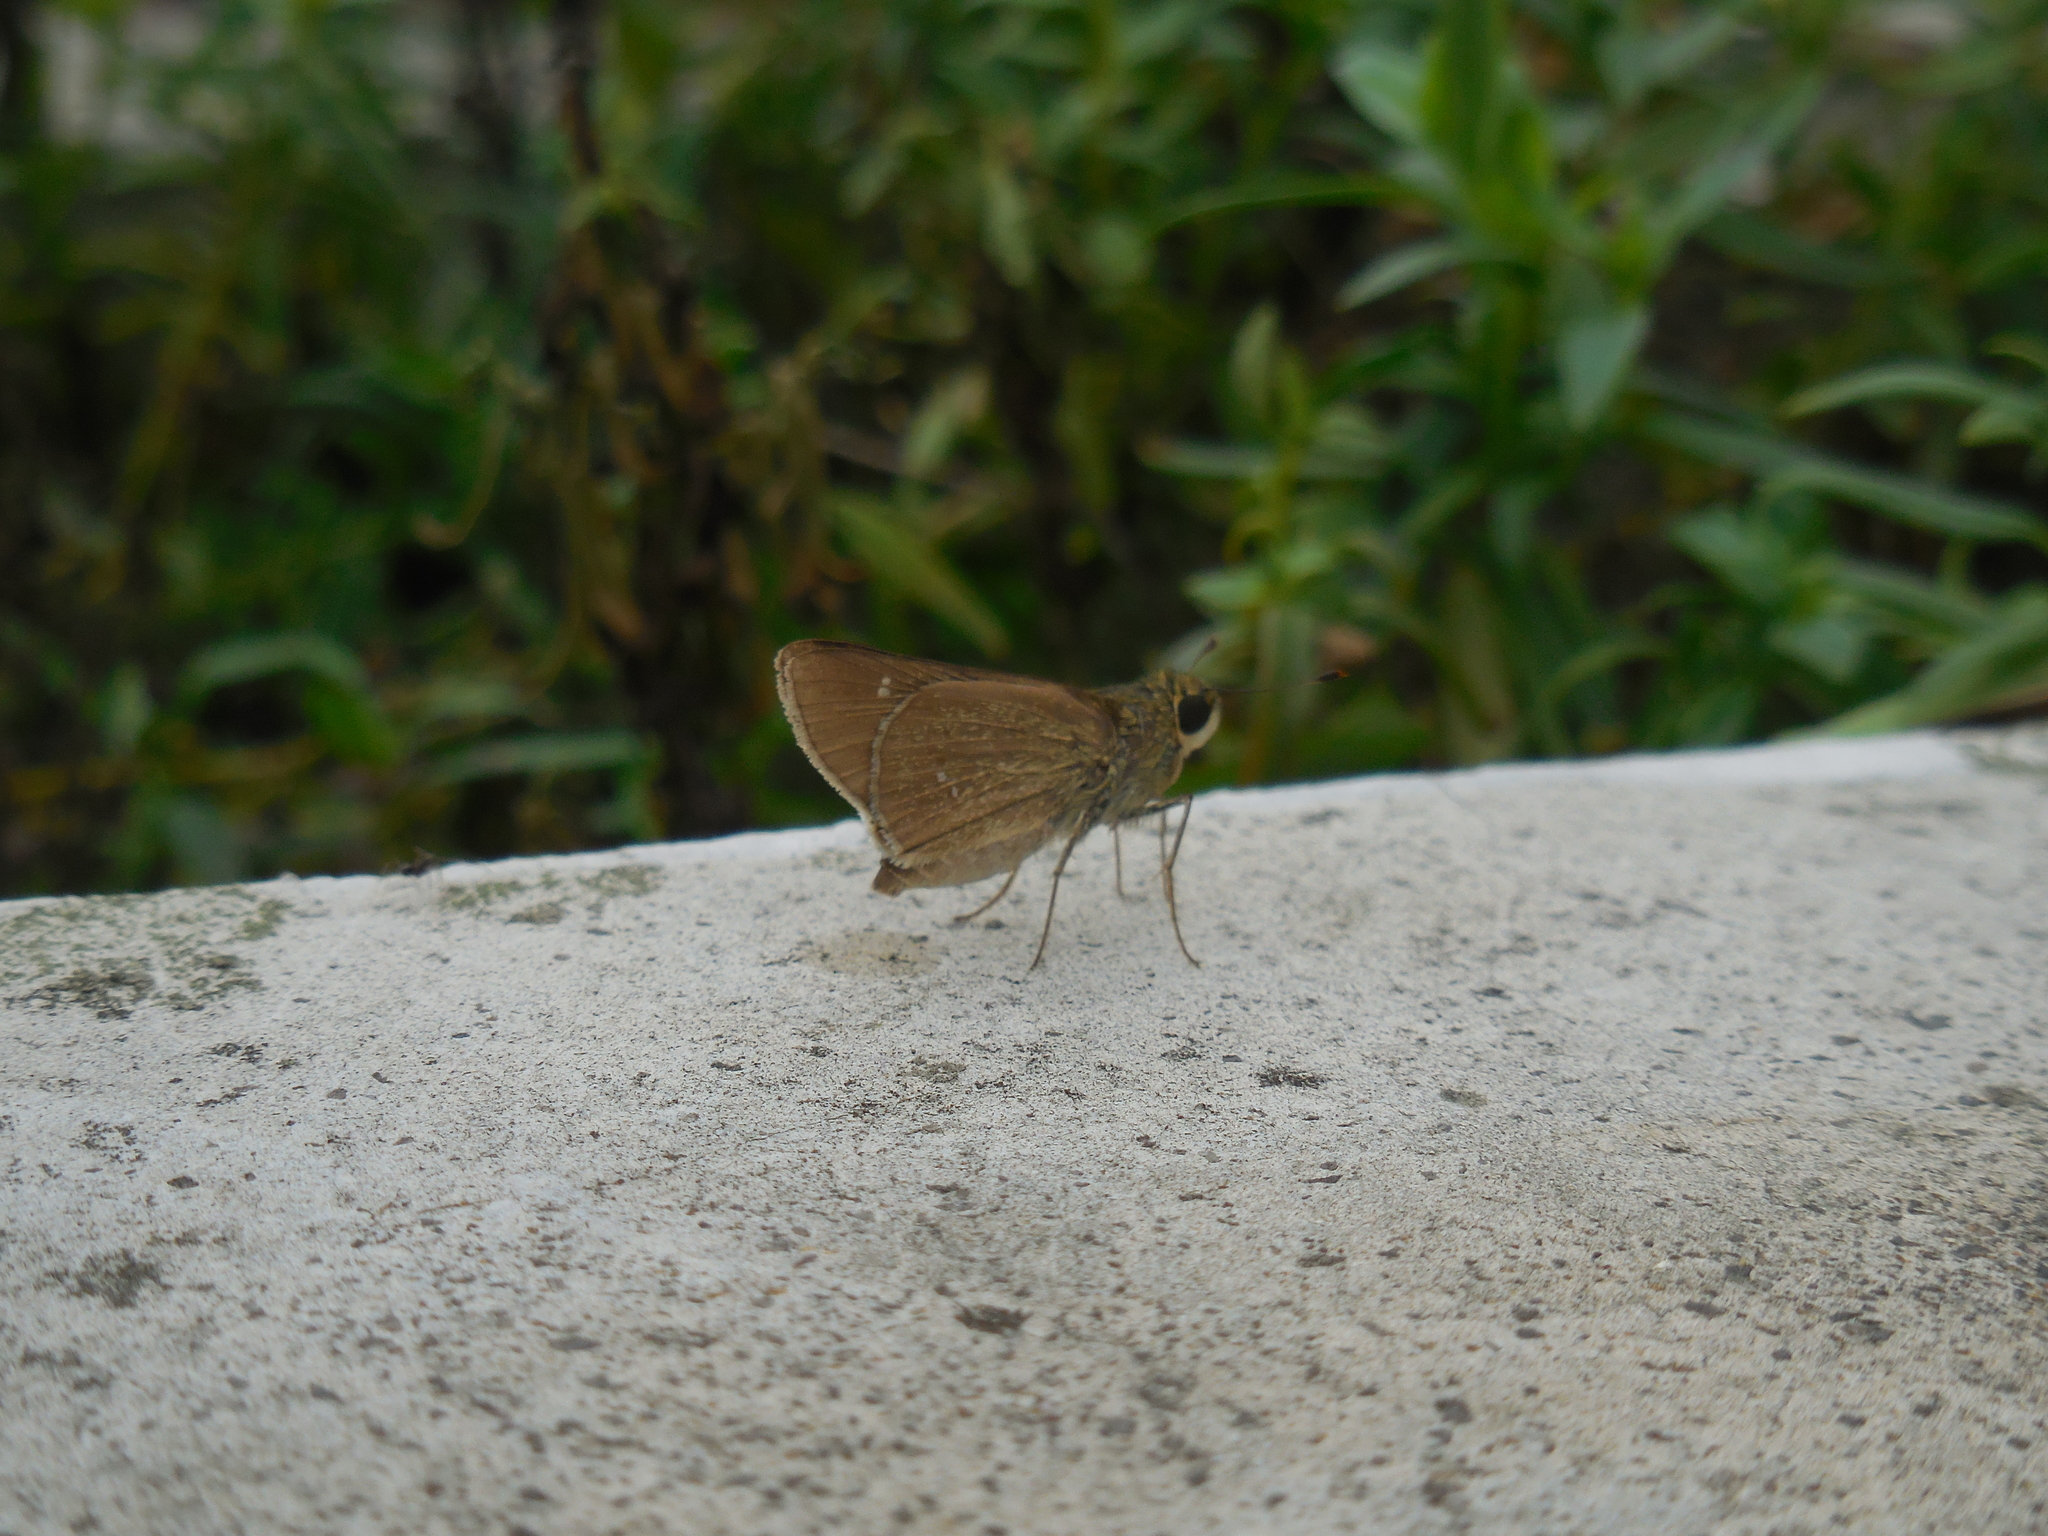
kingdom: Animalia
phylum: Arthropoda
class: Insecta
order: Lepidoptera
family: Hesperiidae
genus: Pelopidas
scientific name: Pelopidas agna
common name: Little branded swift
